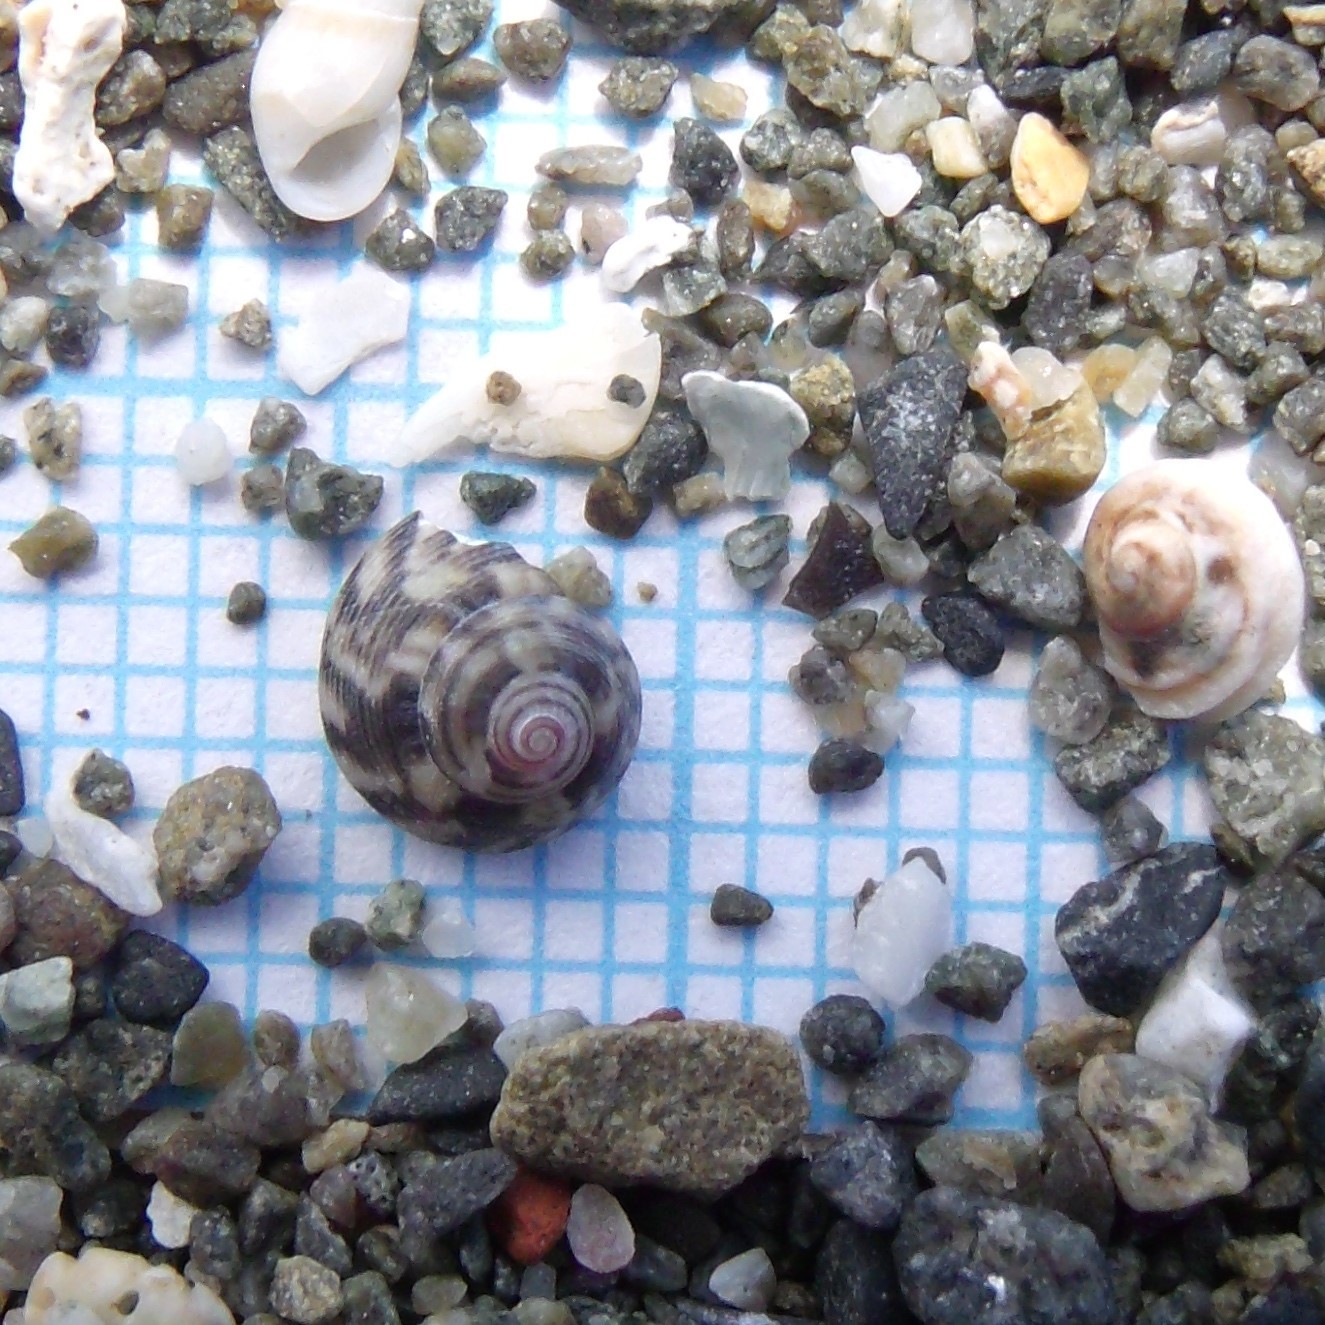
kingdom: Animalia
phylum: Mollusca
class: Gastropoda
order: Trochida
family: Trochidae
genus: Coelotrochus
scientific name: Coelotrochus chathamensis
